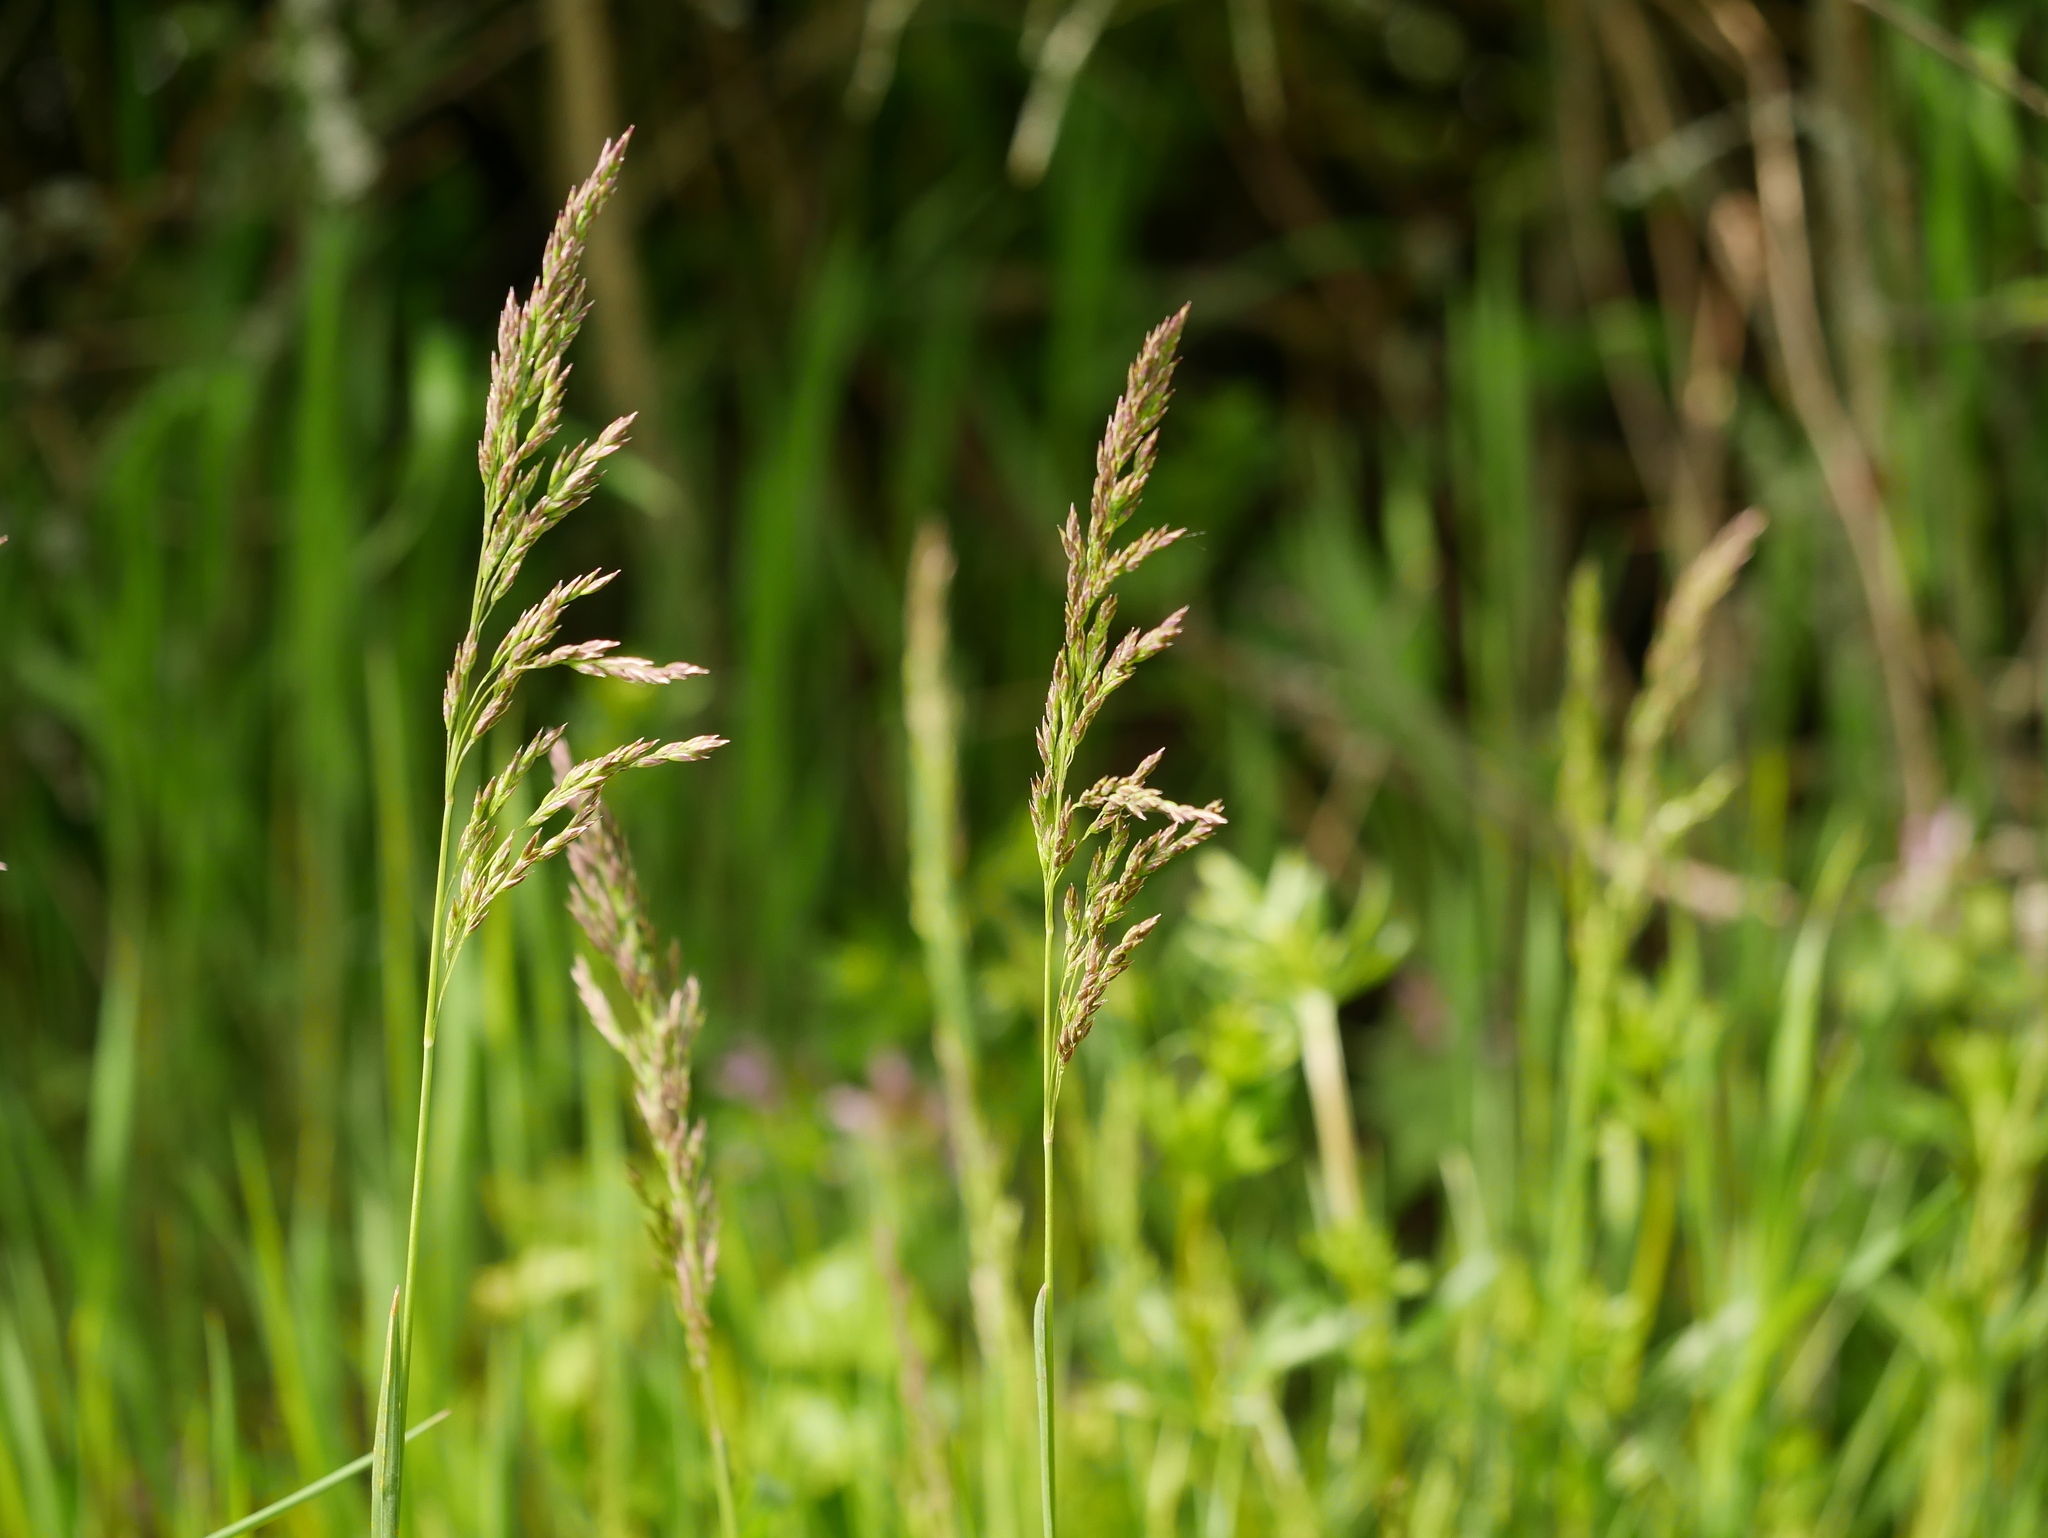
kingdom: Plantae
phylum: Tracheophyta
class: Liliopsida
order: Poales
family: Poaceae
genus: Poa
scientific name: Poa pratensis
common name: Kentucky bluegrass
